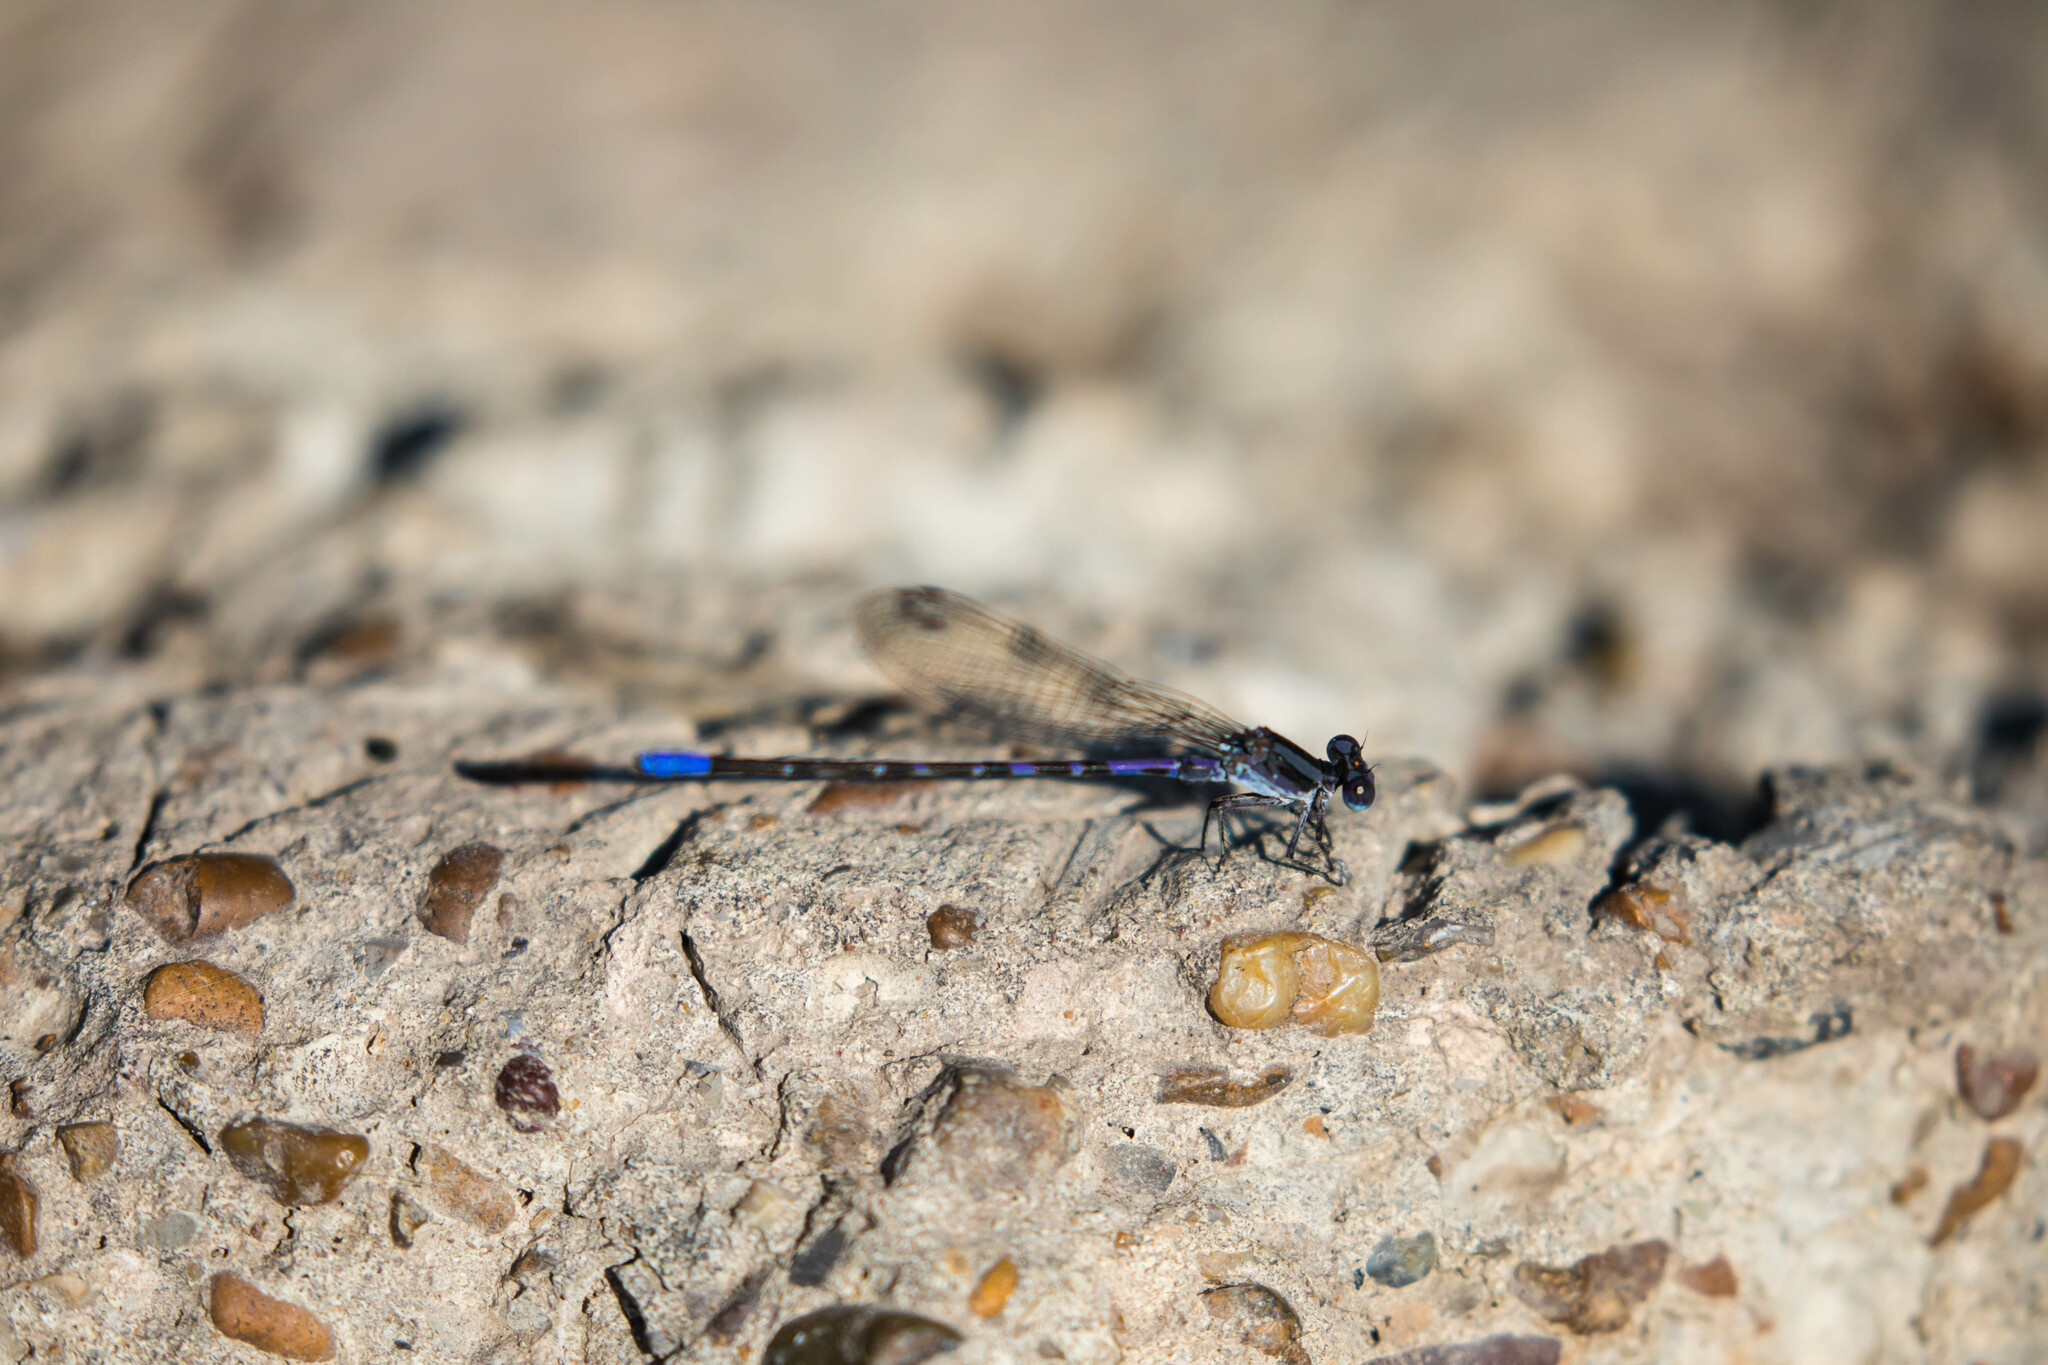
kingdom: Animalia
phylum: Arthropoda
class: Insecta
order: Odonata
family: Coenagrionidae
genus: Argia
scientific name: Argia immunda
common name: Kiowa dancer
